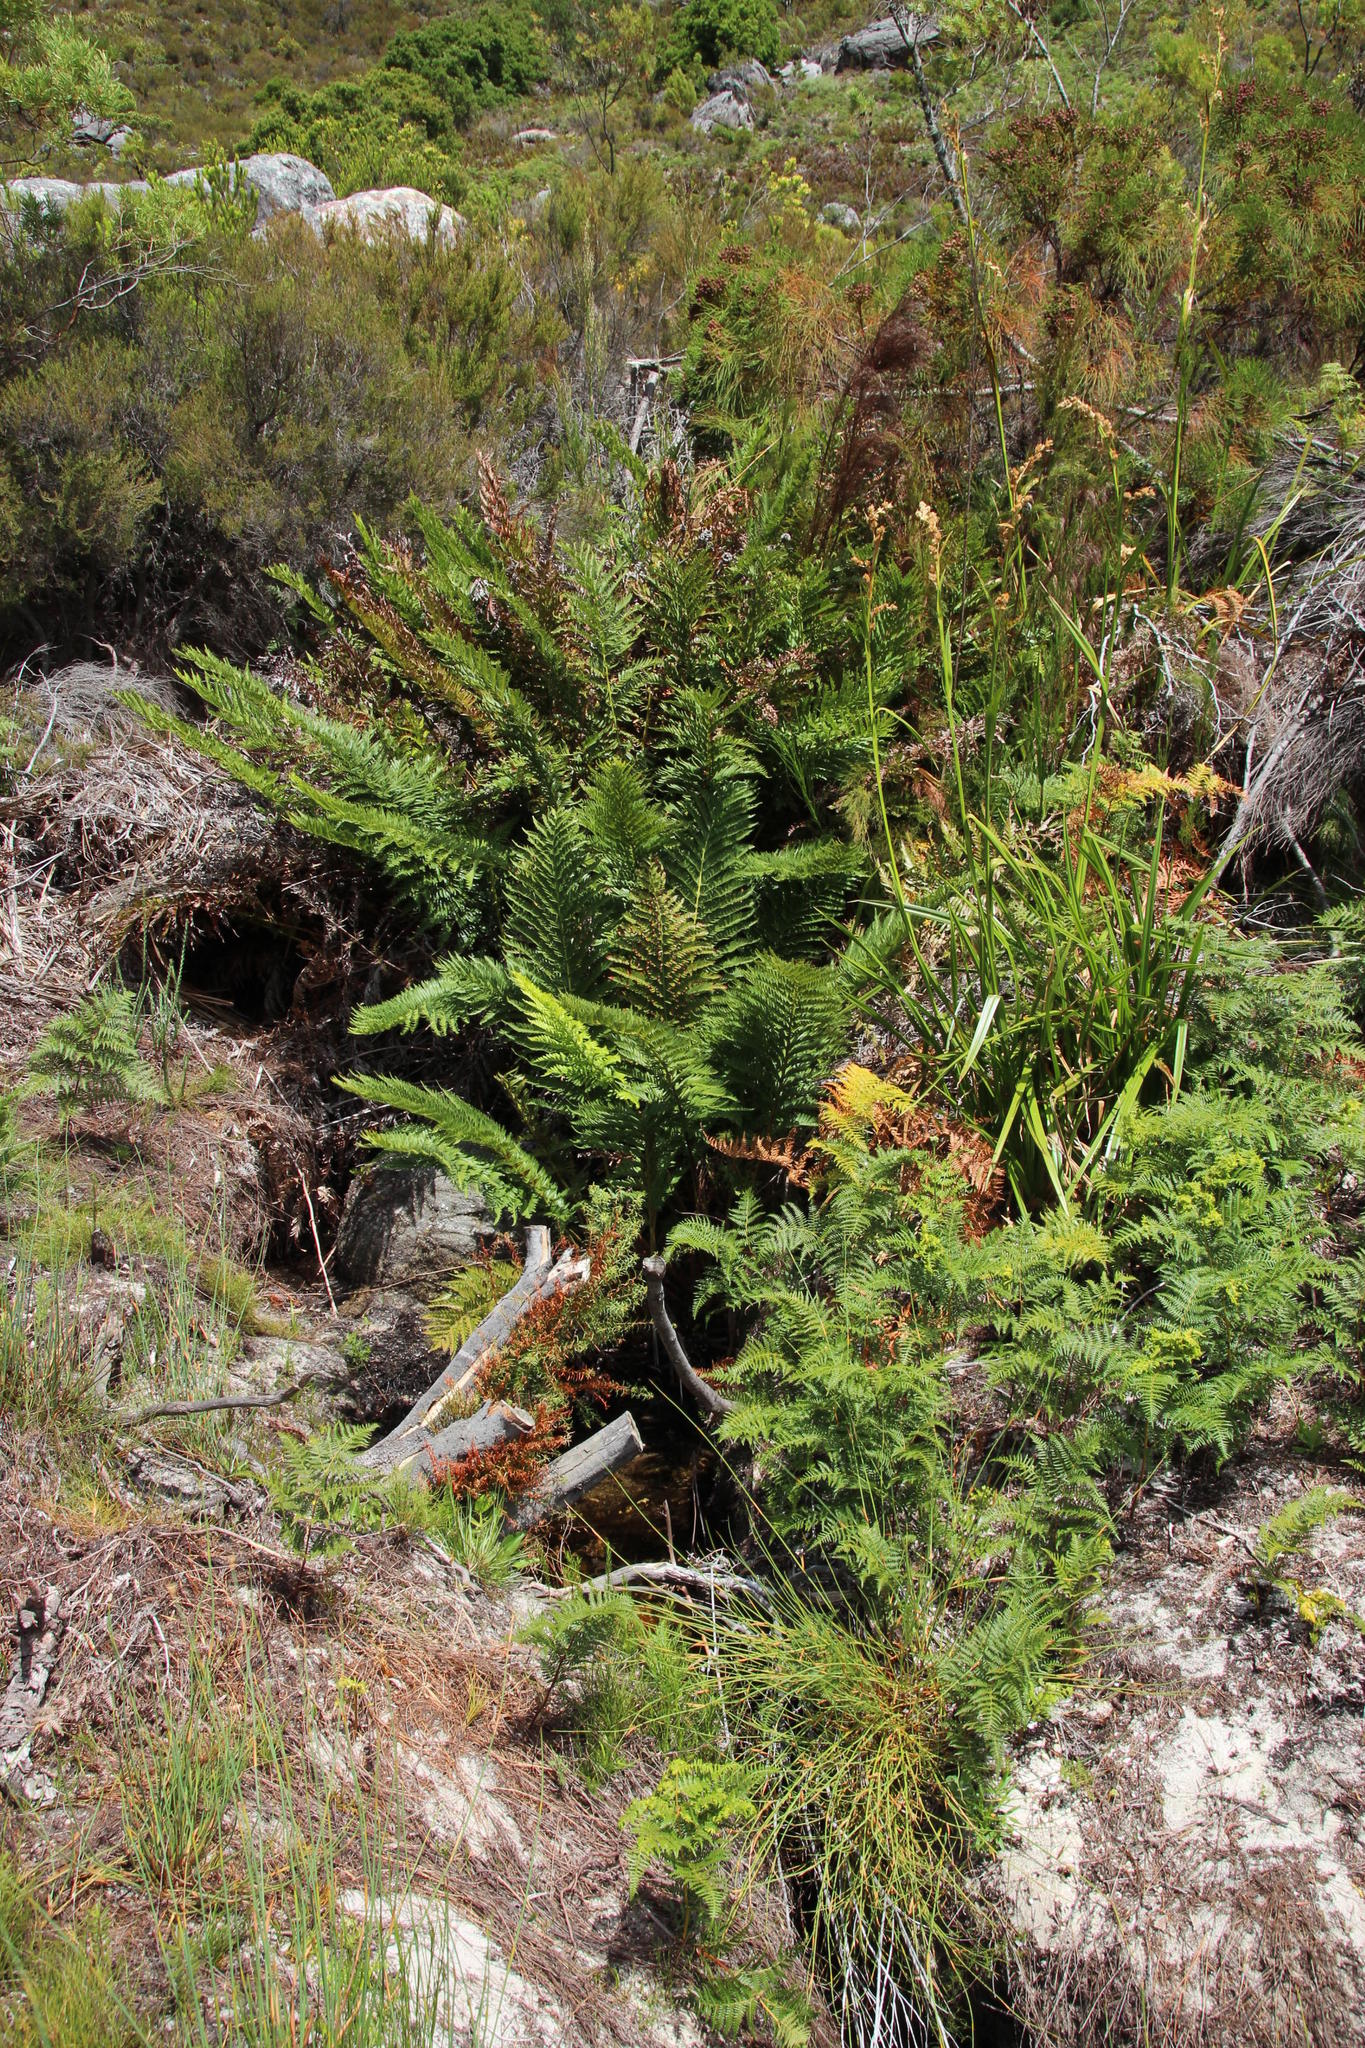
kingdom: Plantae
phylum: Tracheophyta
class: Polypodiopsida
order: Osmundales
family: Osmundaceae
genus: Todea
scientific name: Todea barbara
